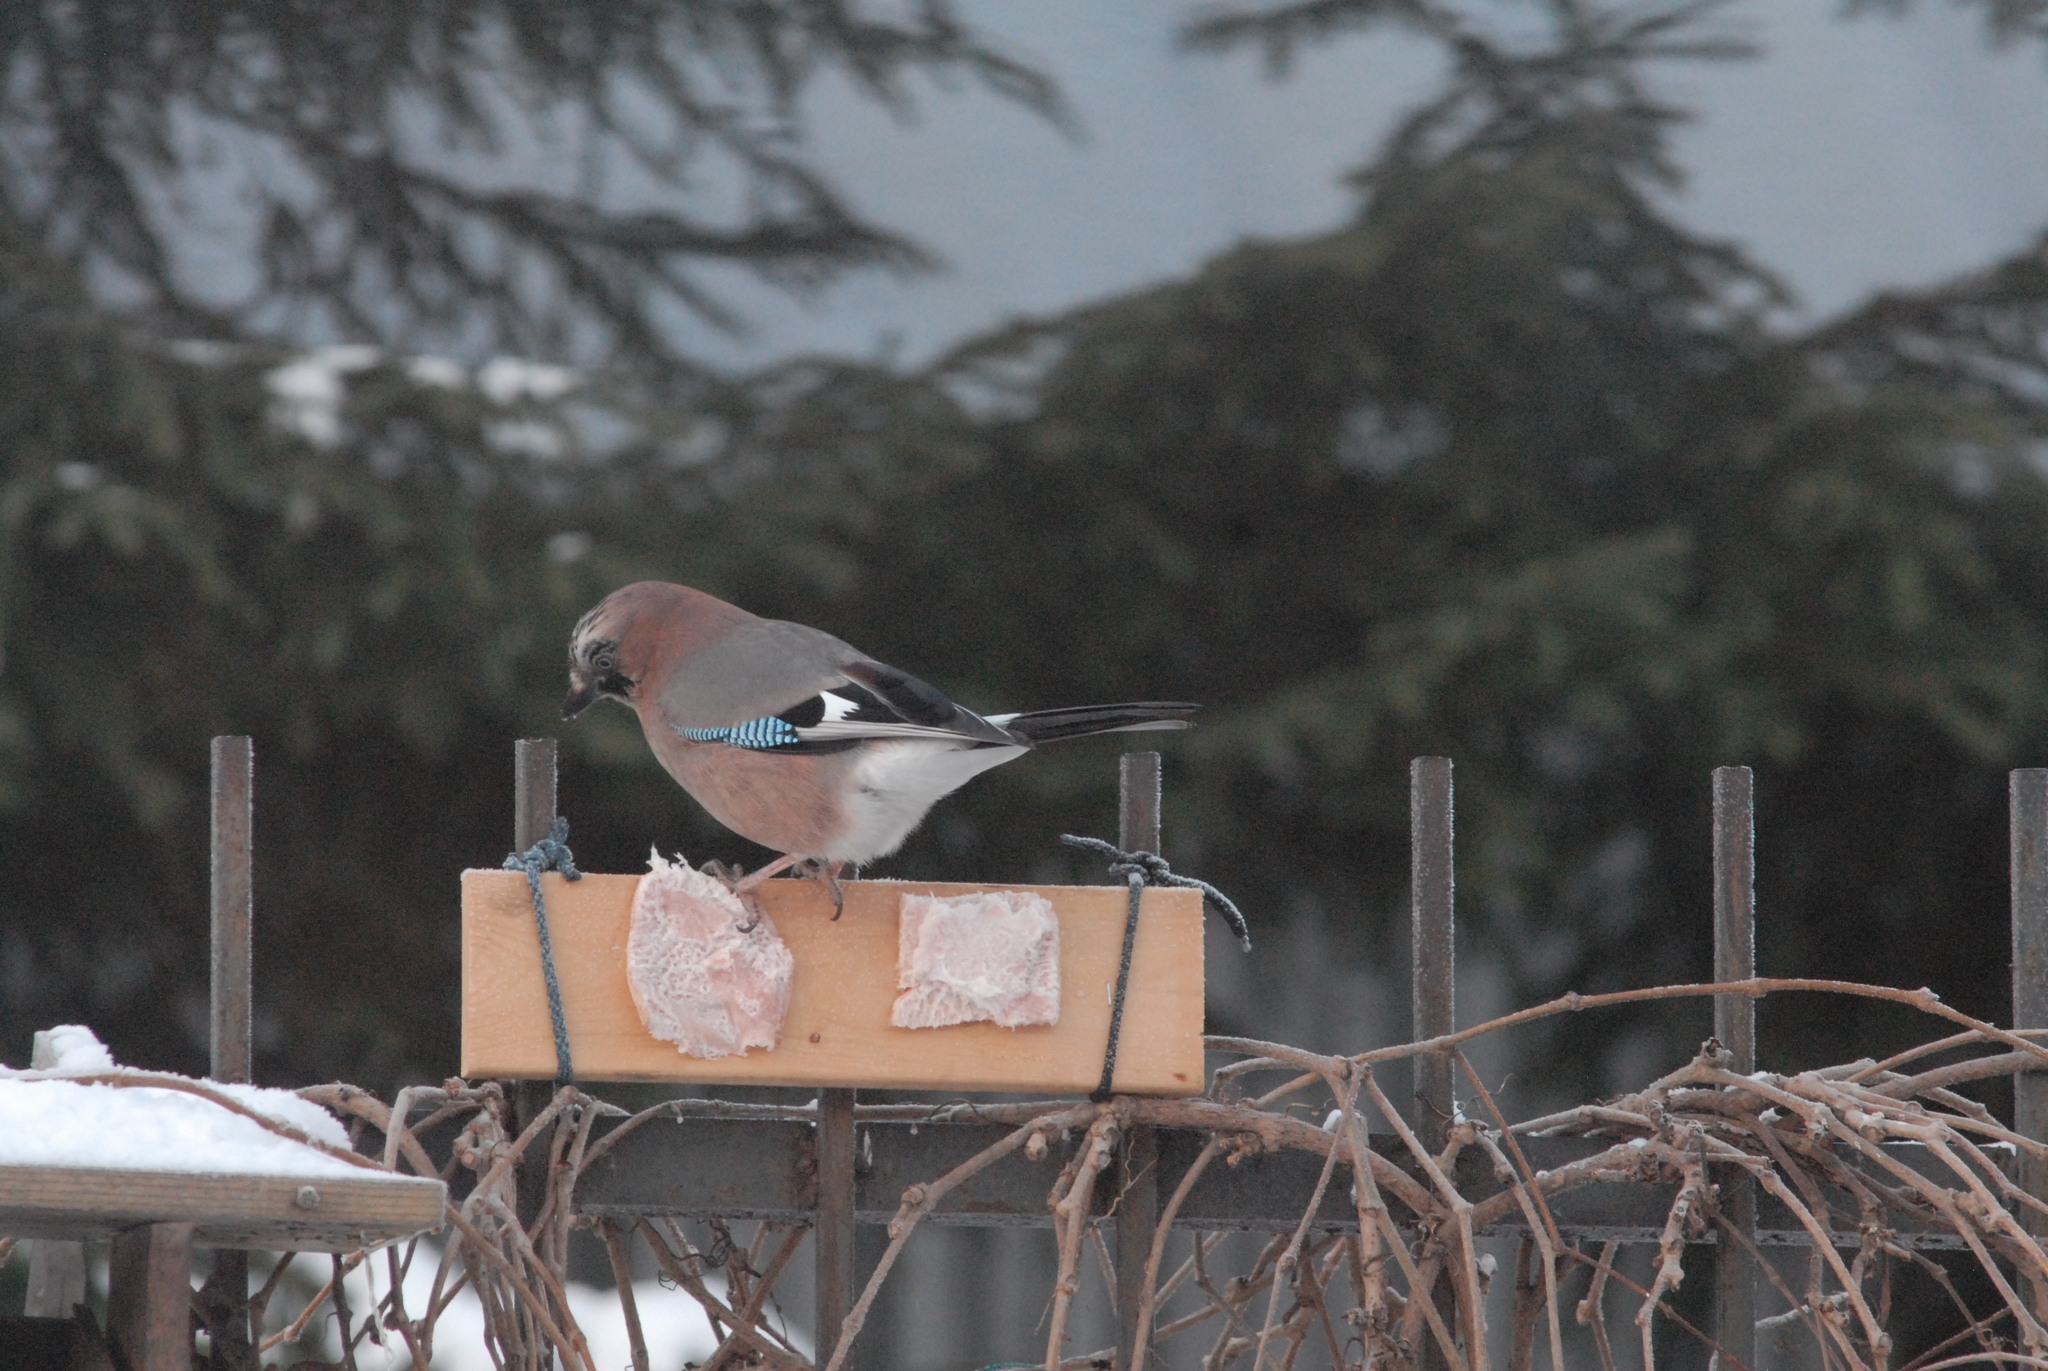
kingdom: Animalia
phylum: Chordata
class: Aves
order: Passeriformes
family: Corvidae
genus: Garrulus
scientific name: Garrulus glandarius
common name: Eurasian jay
